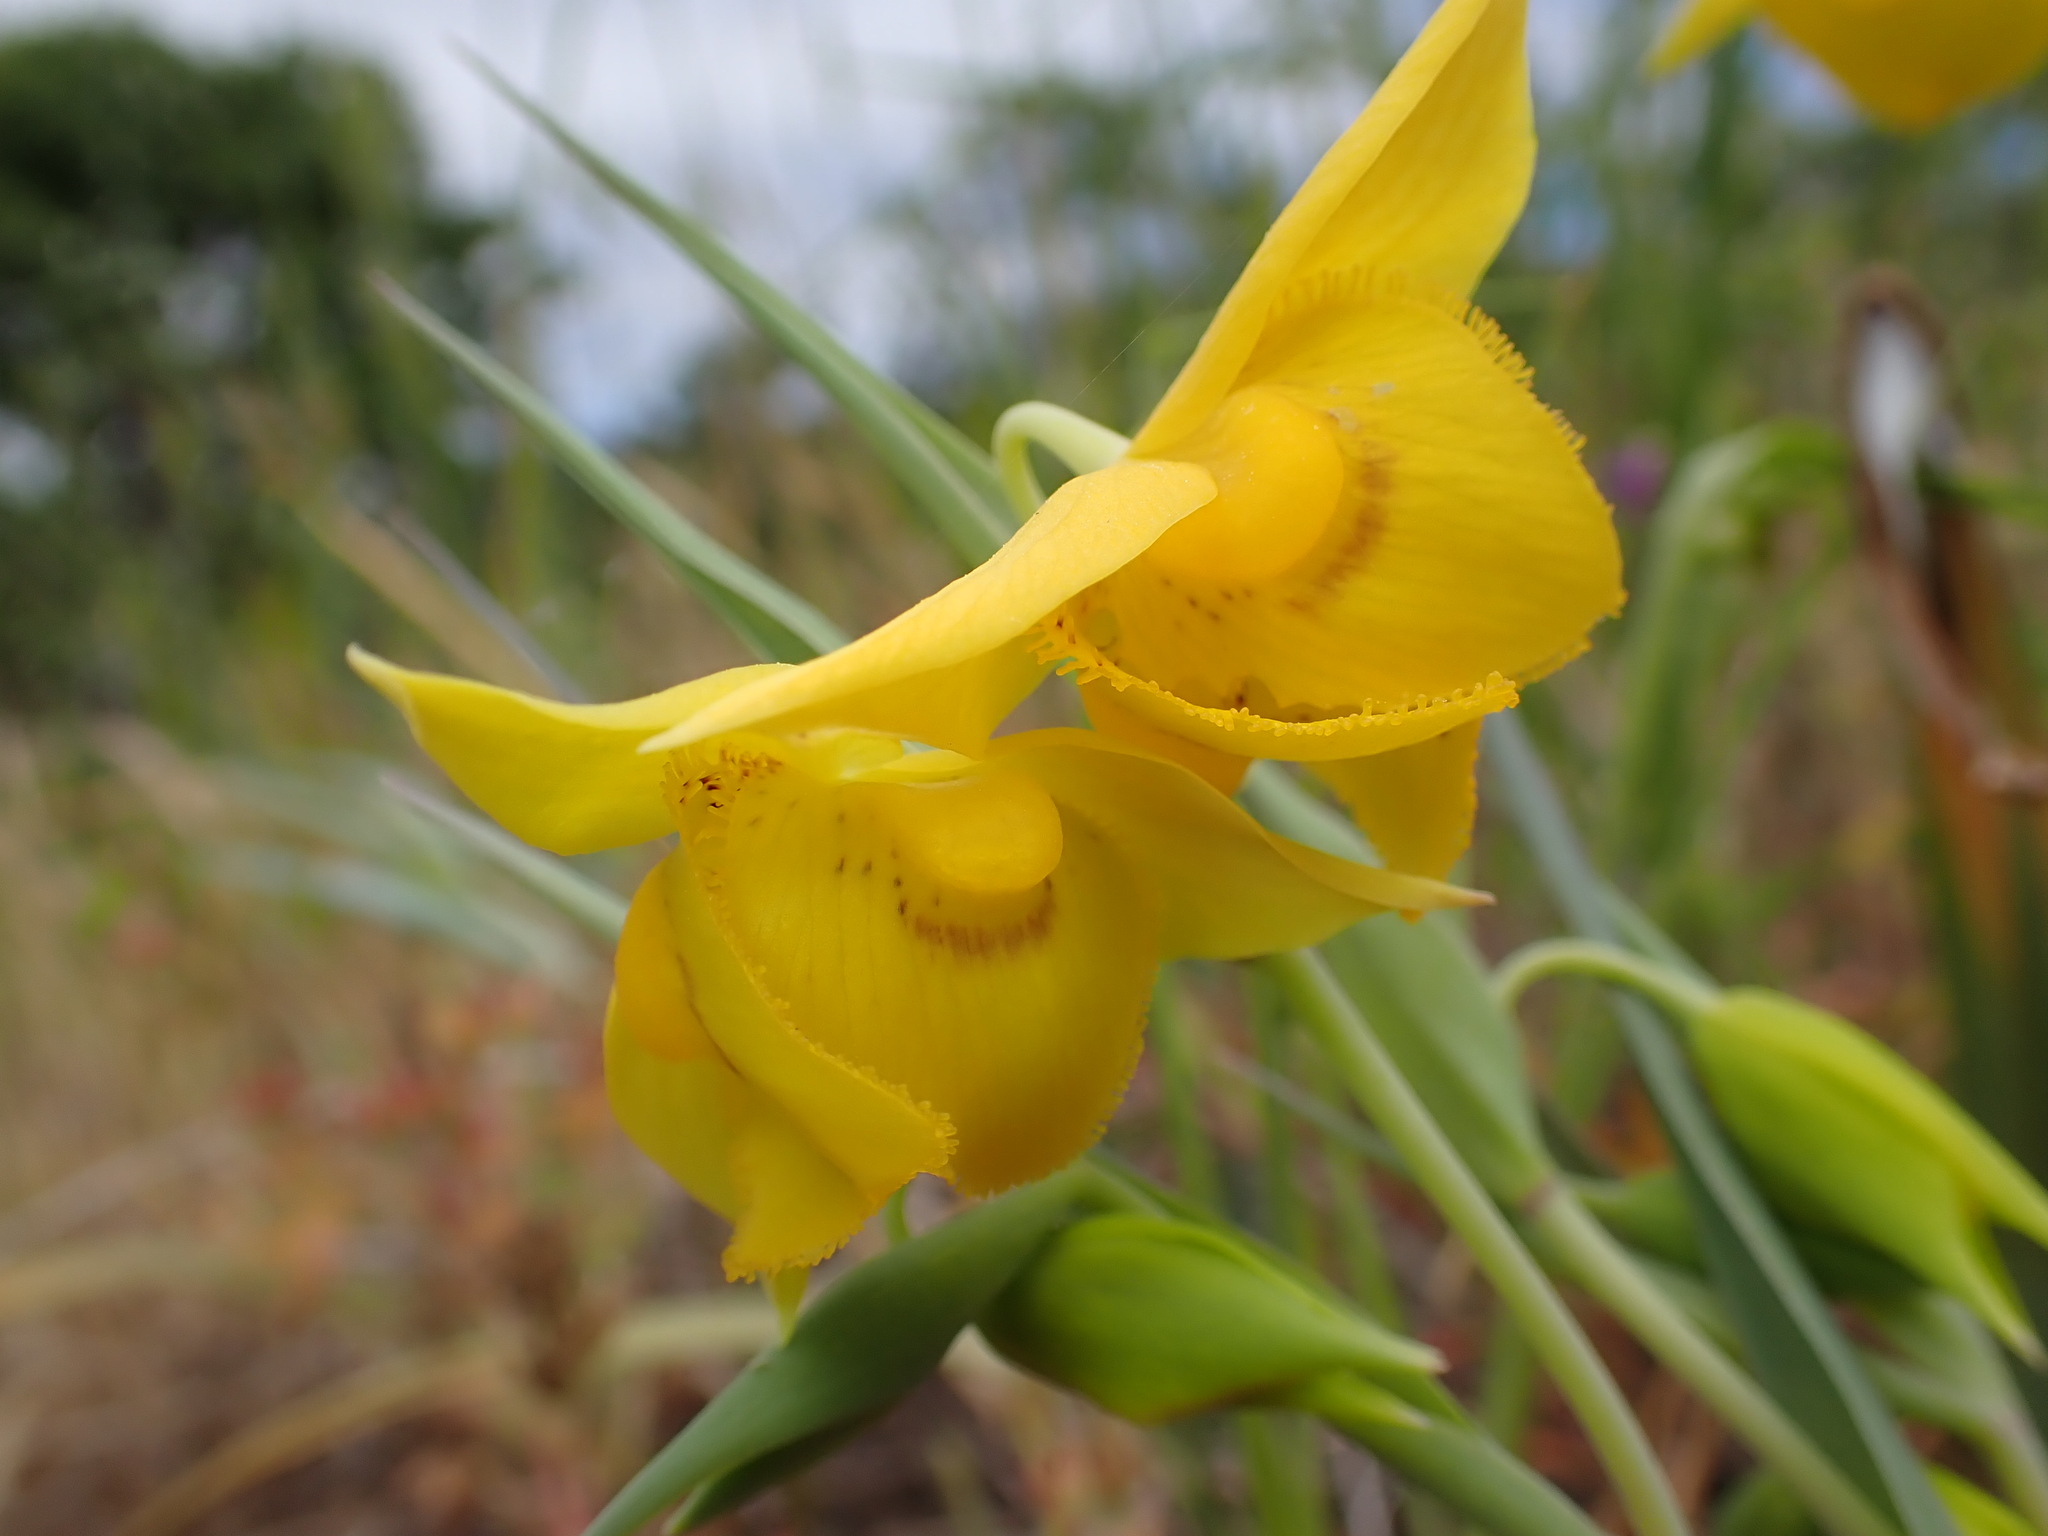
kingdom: Plantae
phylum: Tracheophyta
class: Liliopsida
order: Liliales
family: Liliaceae
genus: Calochortus
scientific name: Calochortus amabilis
